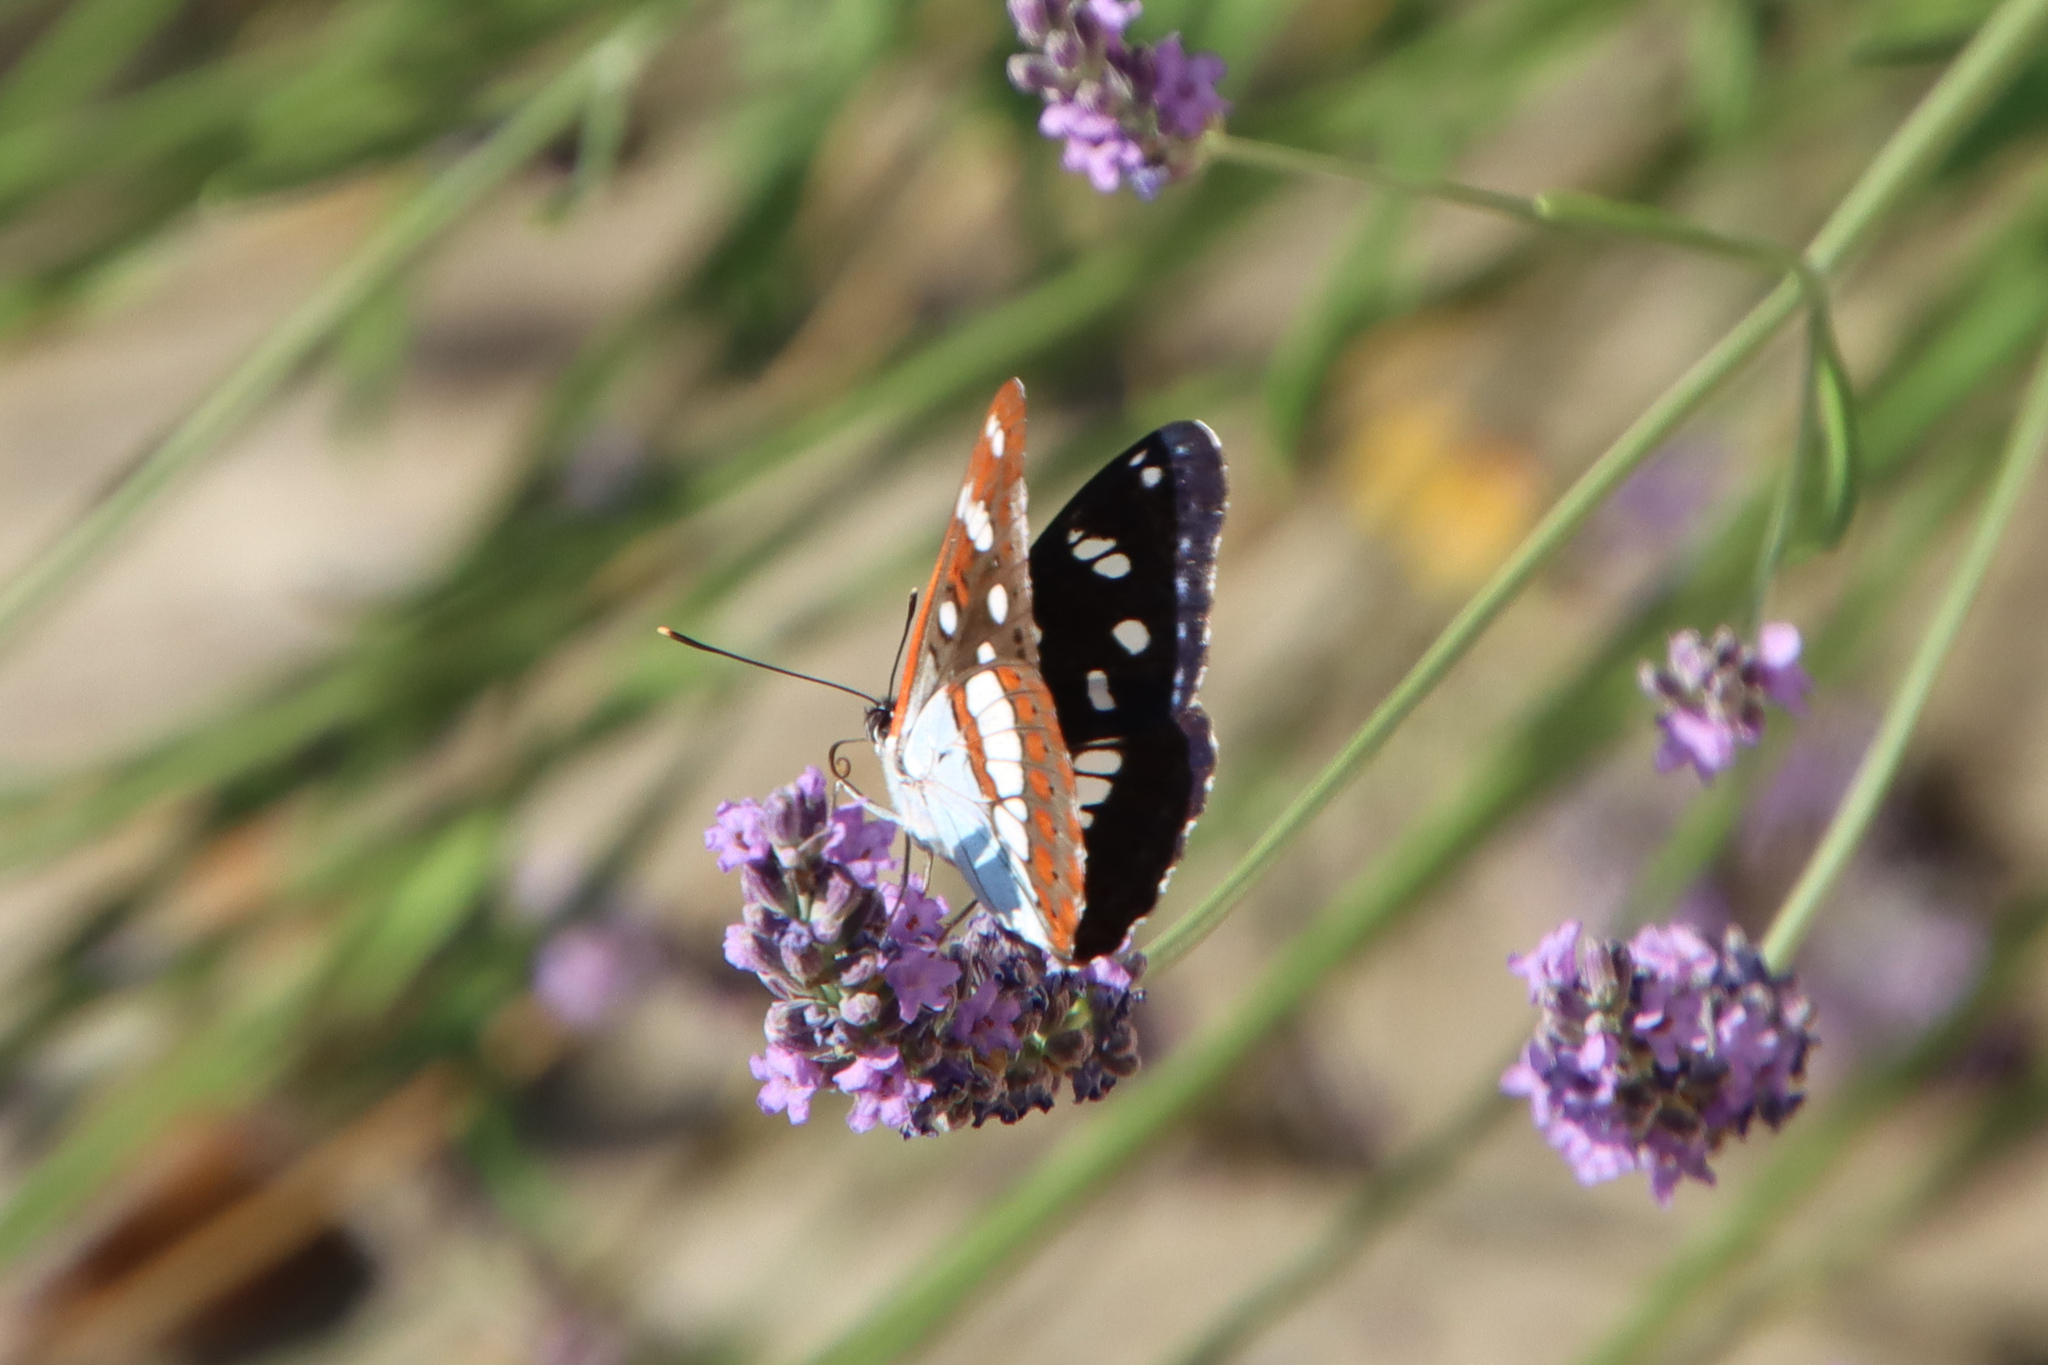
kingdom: Animalia
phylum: Arthropoda
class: Insecta
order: Lepidoptera
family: Nymphalidae
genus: Limenitis
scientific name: Limenitis reducta
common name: Southern white admiral
